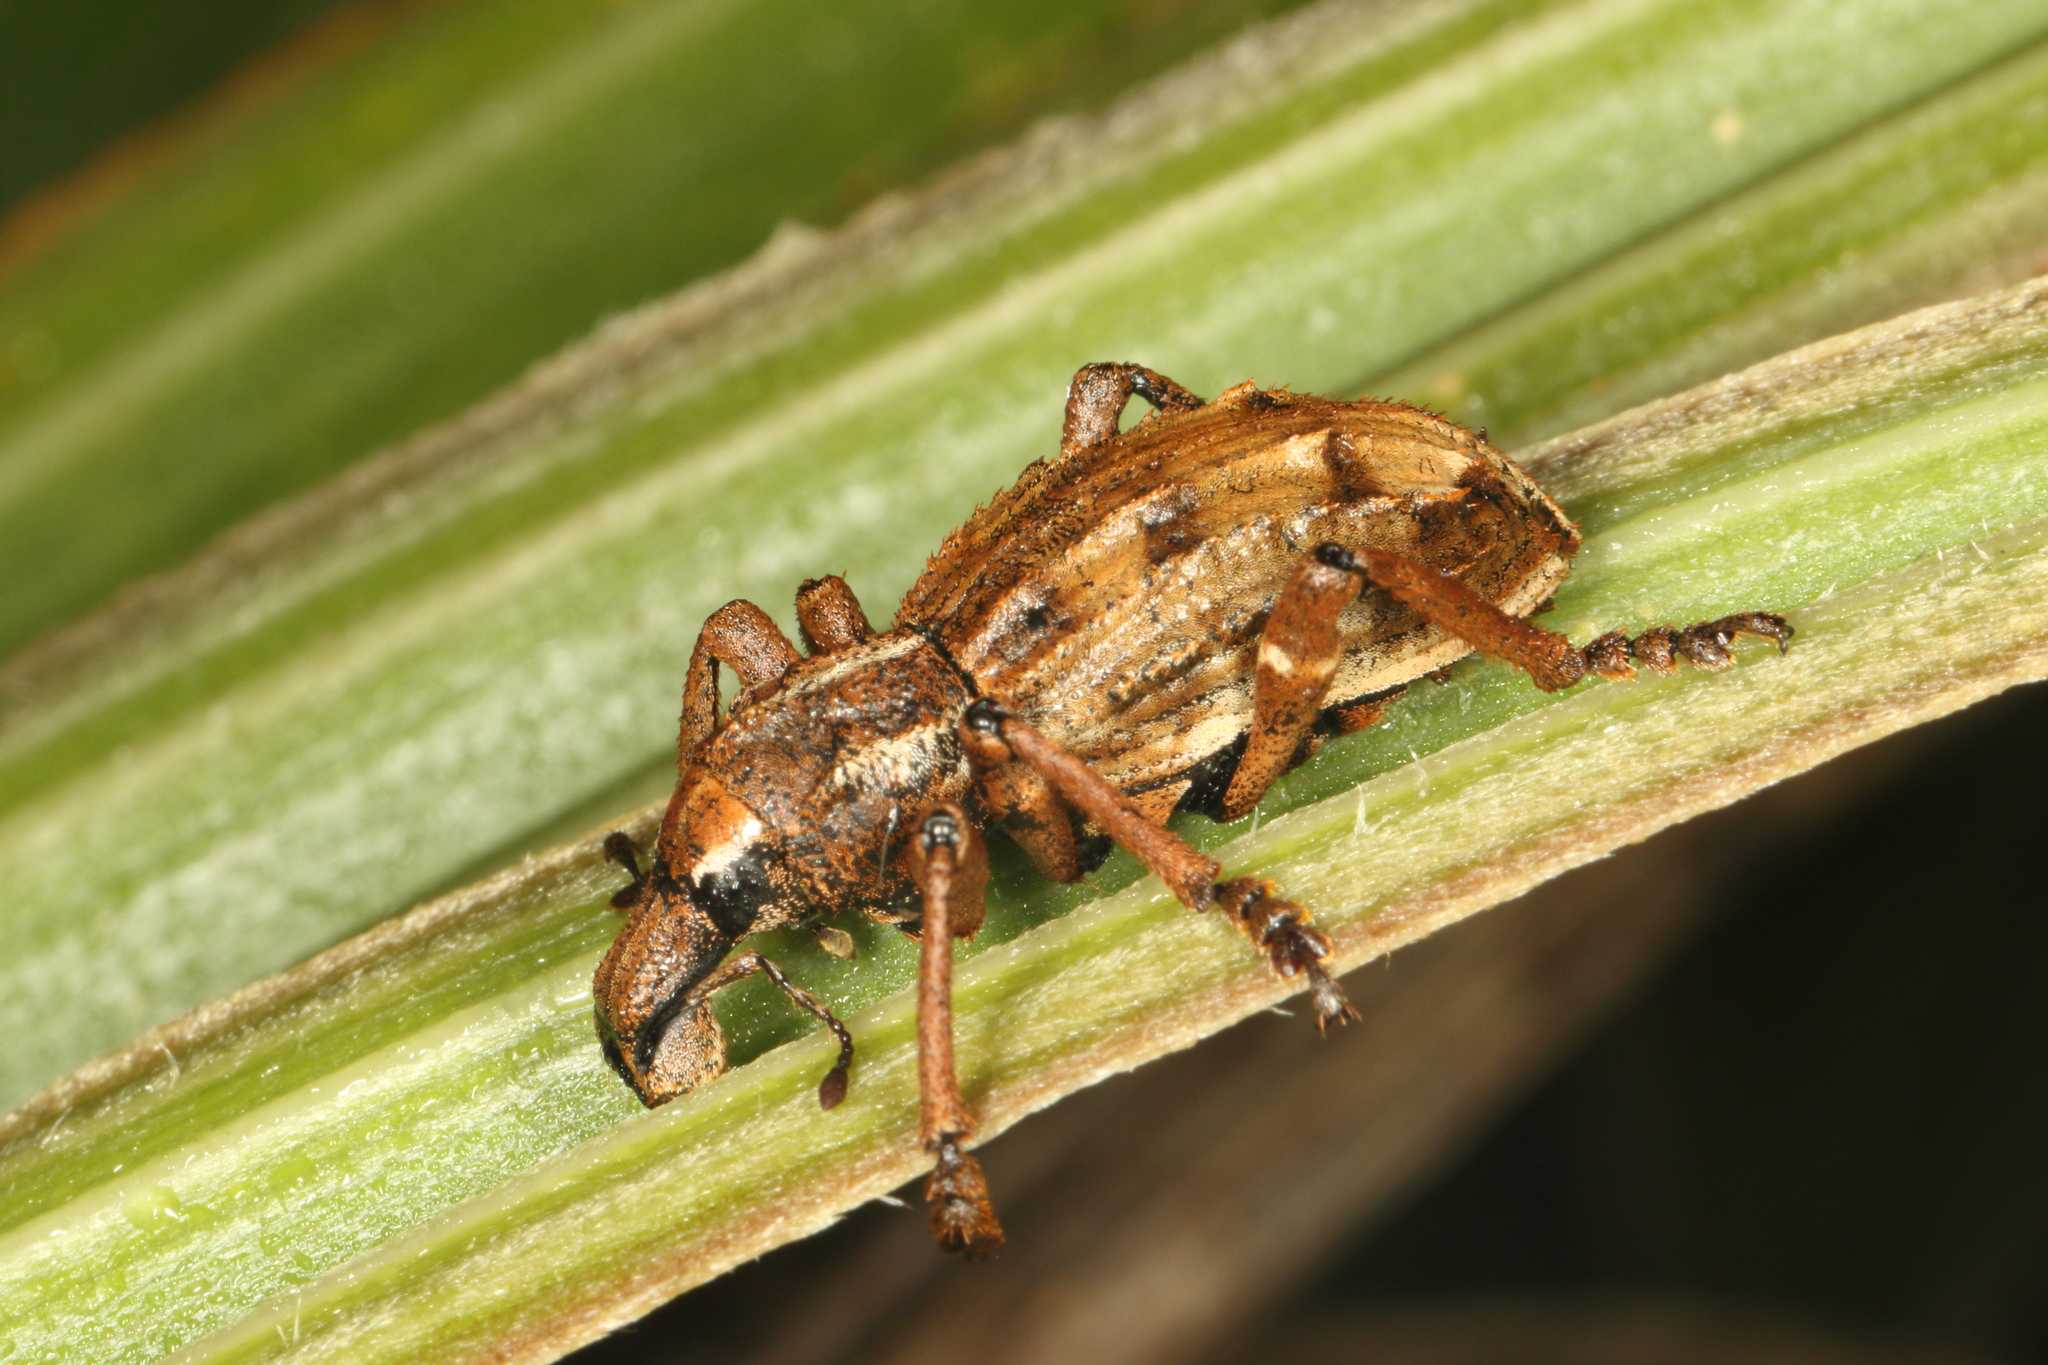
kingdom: Animalia
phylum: Arthropoda
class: Insecta
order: Coleoptera
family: Curculionidae
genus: Anagotus
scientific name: Anagotus
